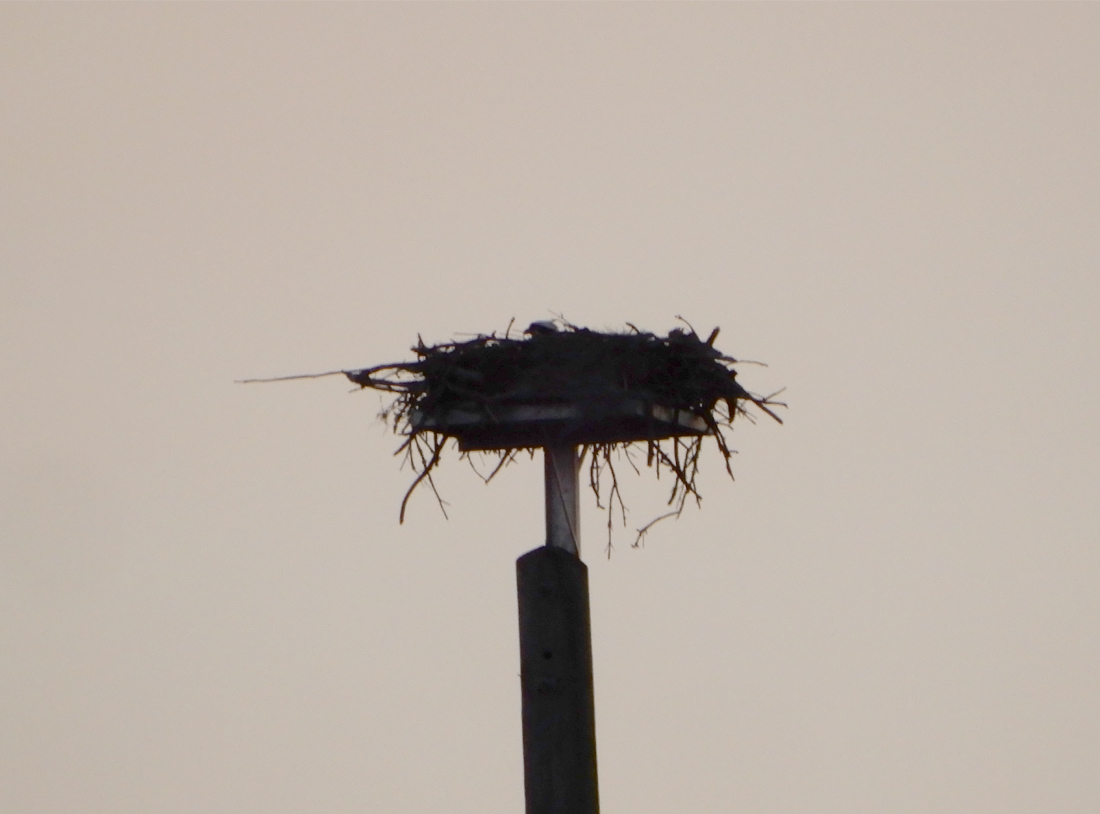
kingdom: Animalia
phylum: Chordata
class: Aves
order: Accipitriformes
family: Pandionidae
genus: Pandion
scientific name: Pandion haliaetus
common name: Osprey
